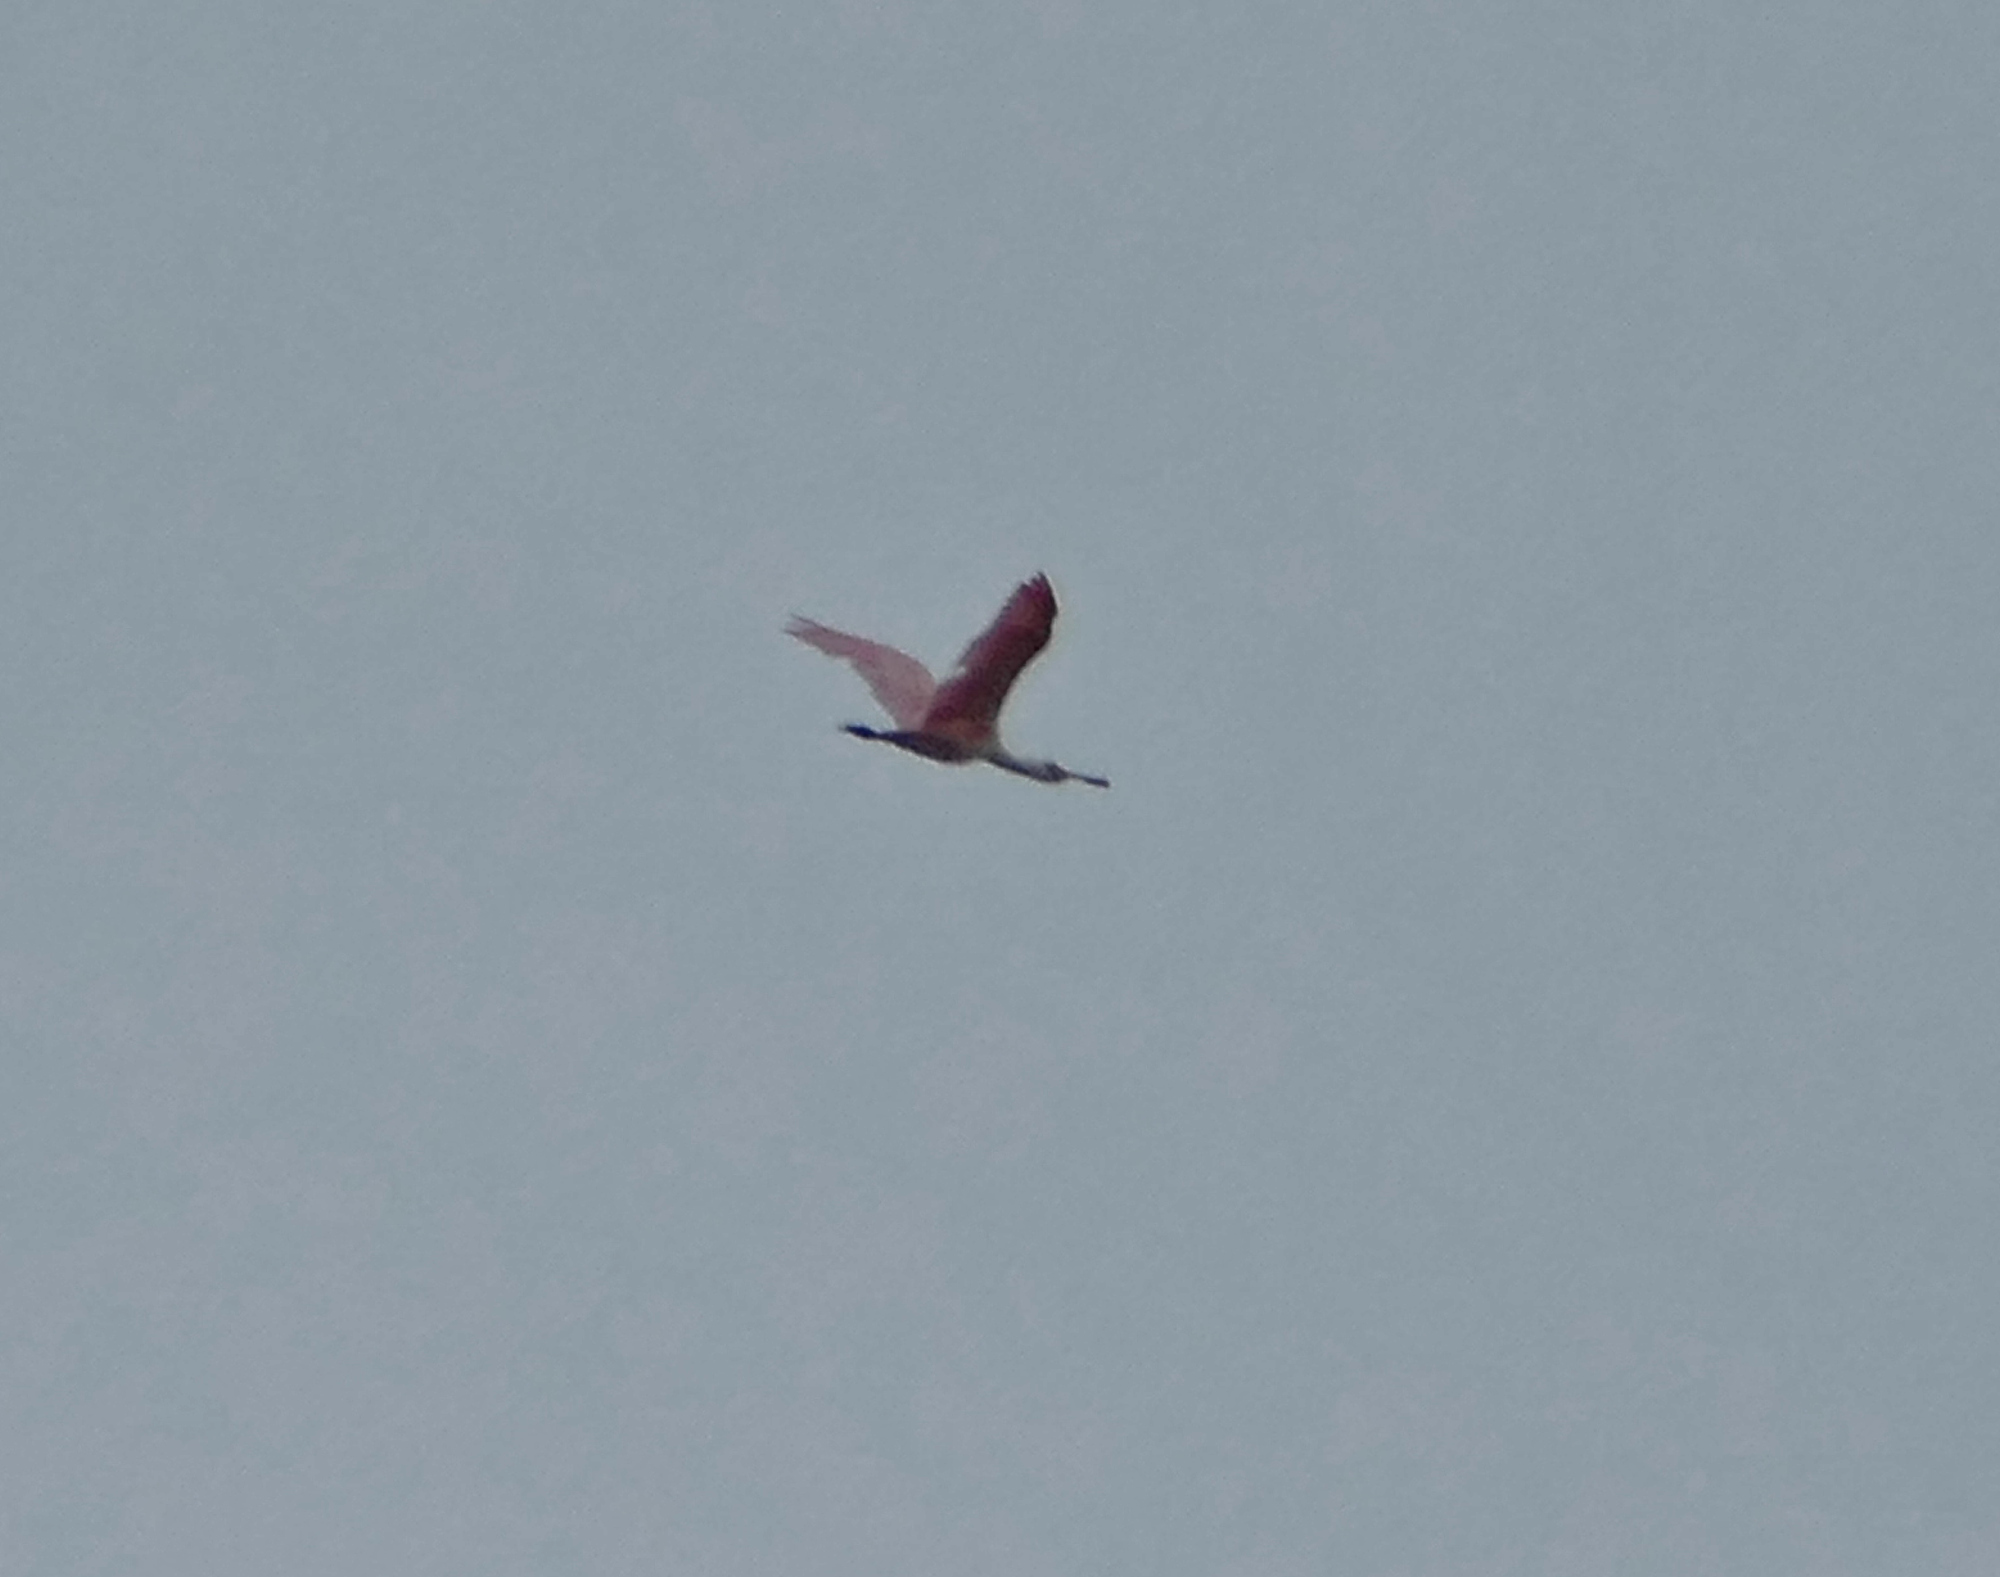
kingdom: Animalia
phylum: Chordata
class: Aves
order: Pelecaniformes
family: Threskiornithidae
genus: Platalea
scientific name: Platalea ajaja
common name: Roseate spoonbill
